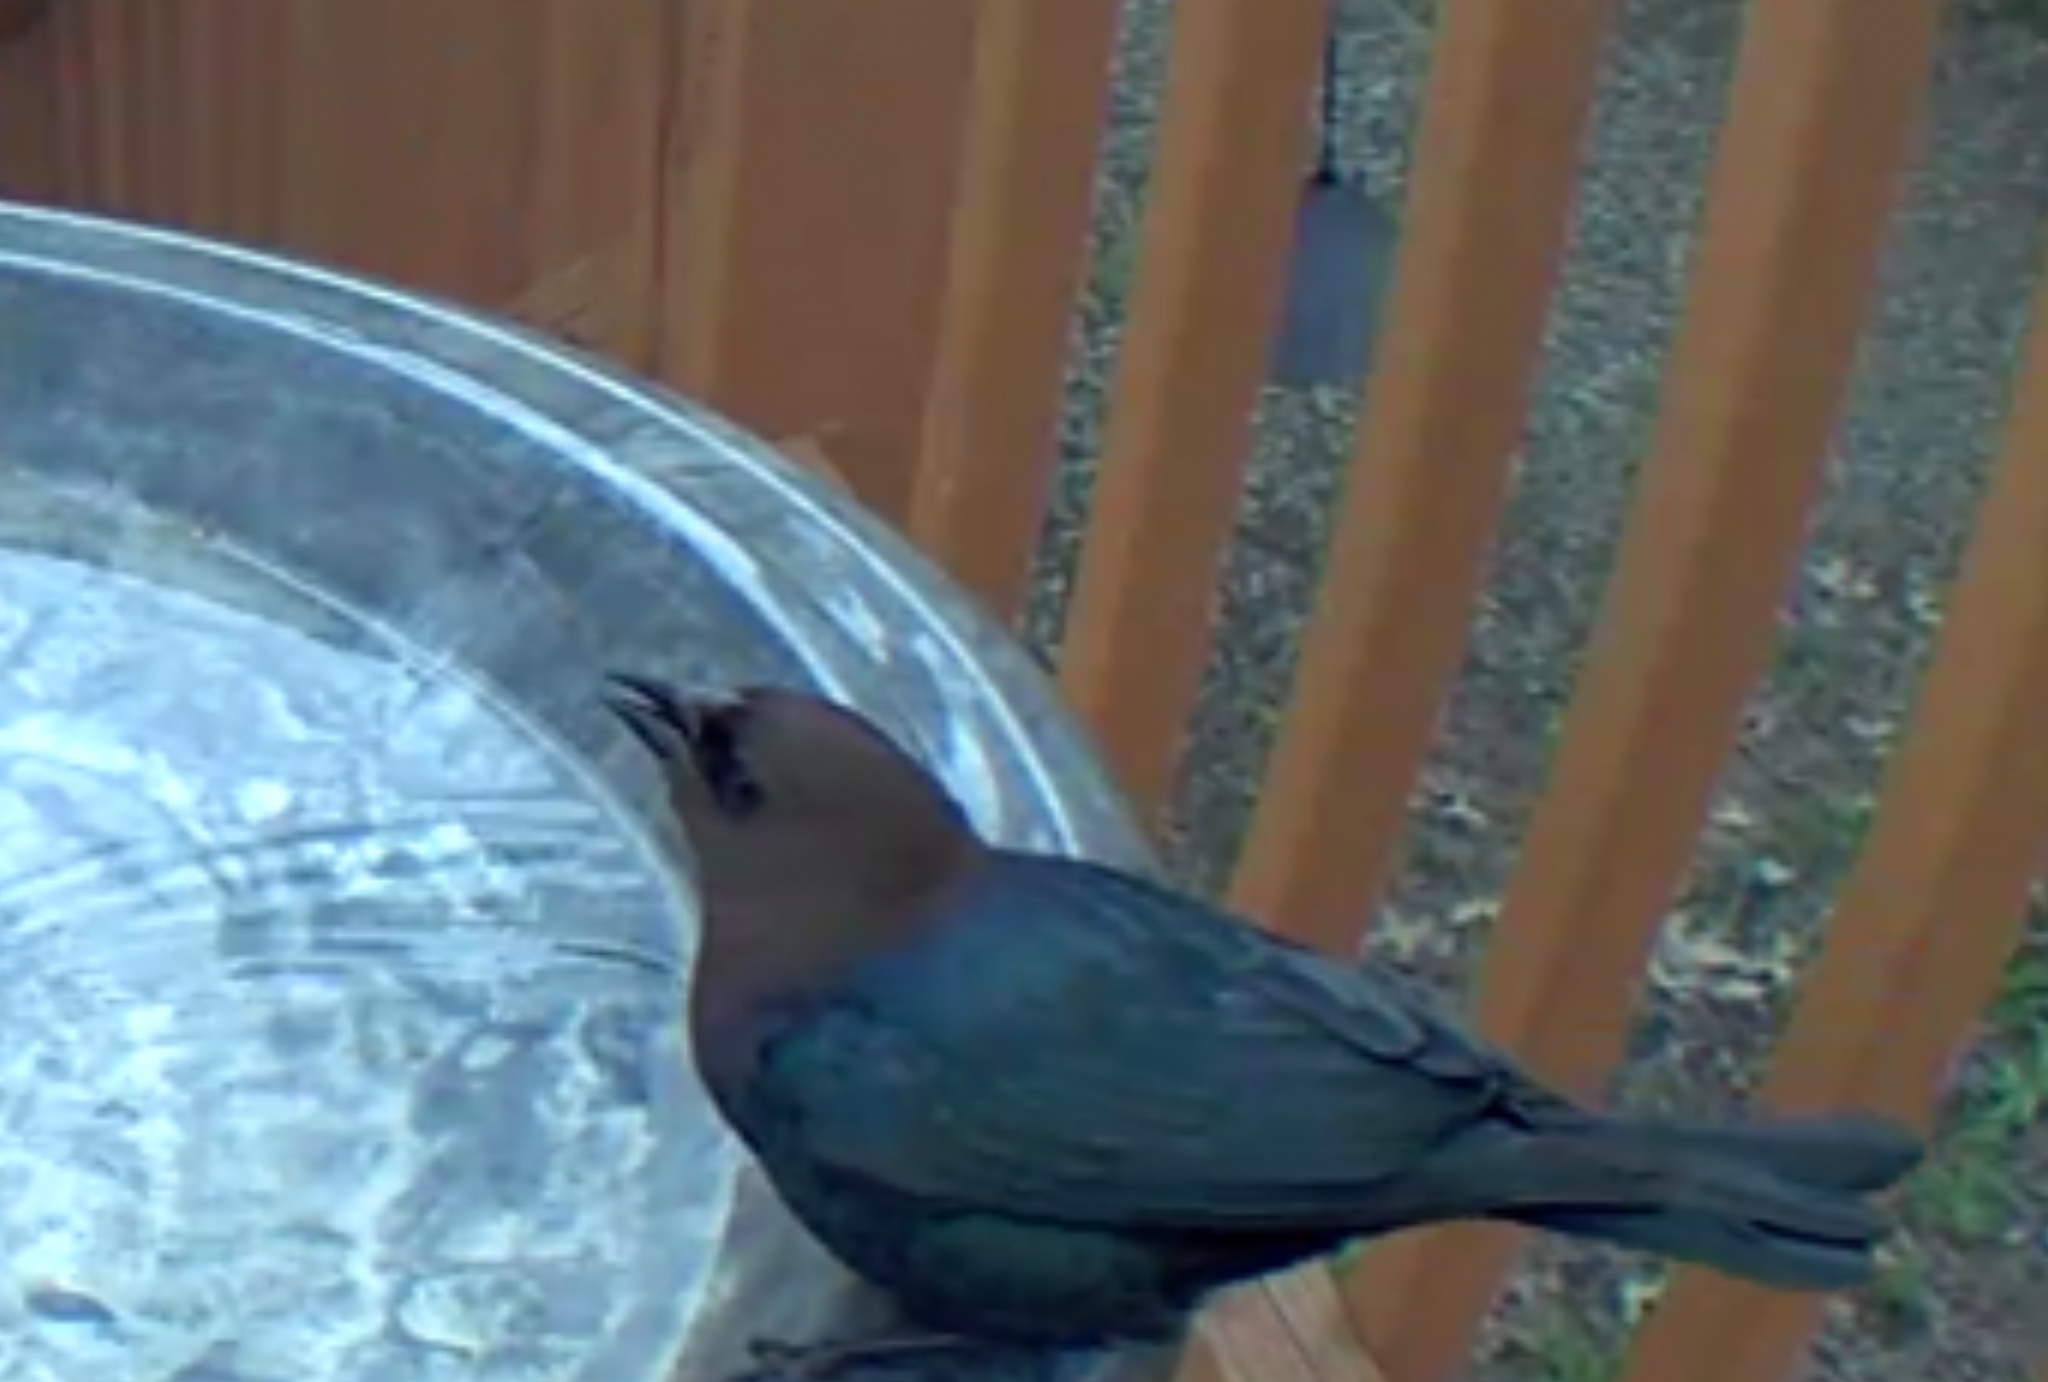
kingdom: Animalia
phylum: Chordata
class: Aves
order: Passeriformes
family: Icteridae
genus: Molothrus
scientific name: Molothrus ater
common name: Brown-headed cowbird
